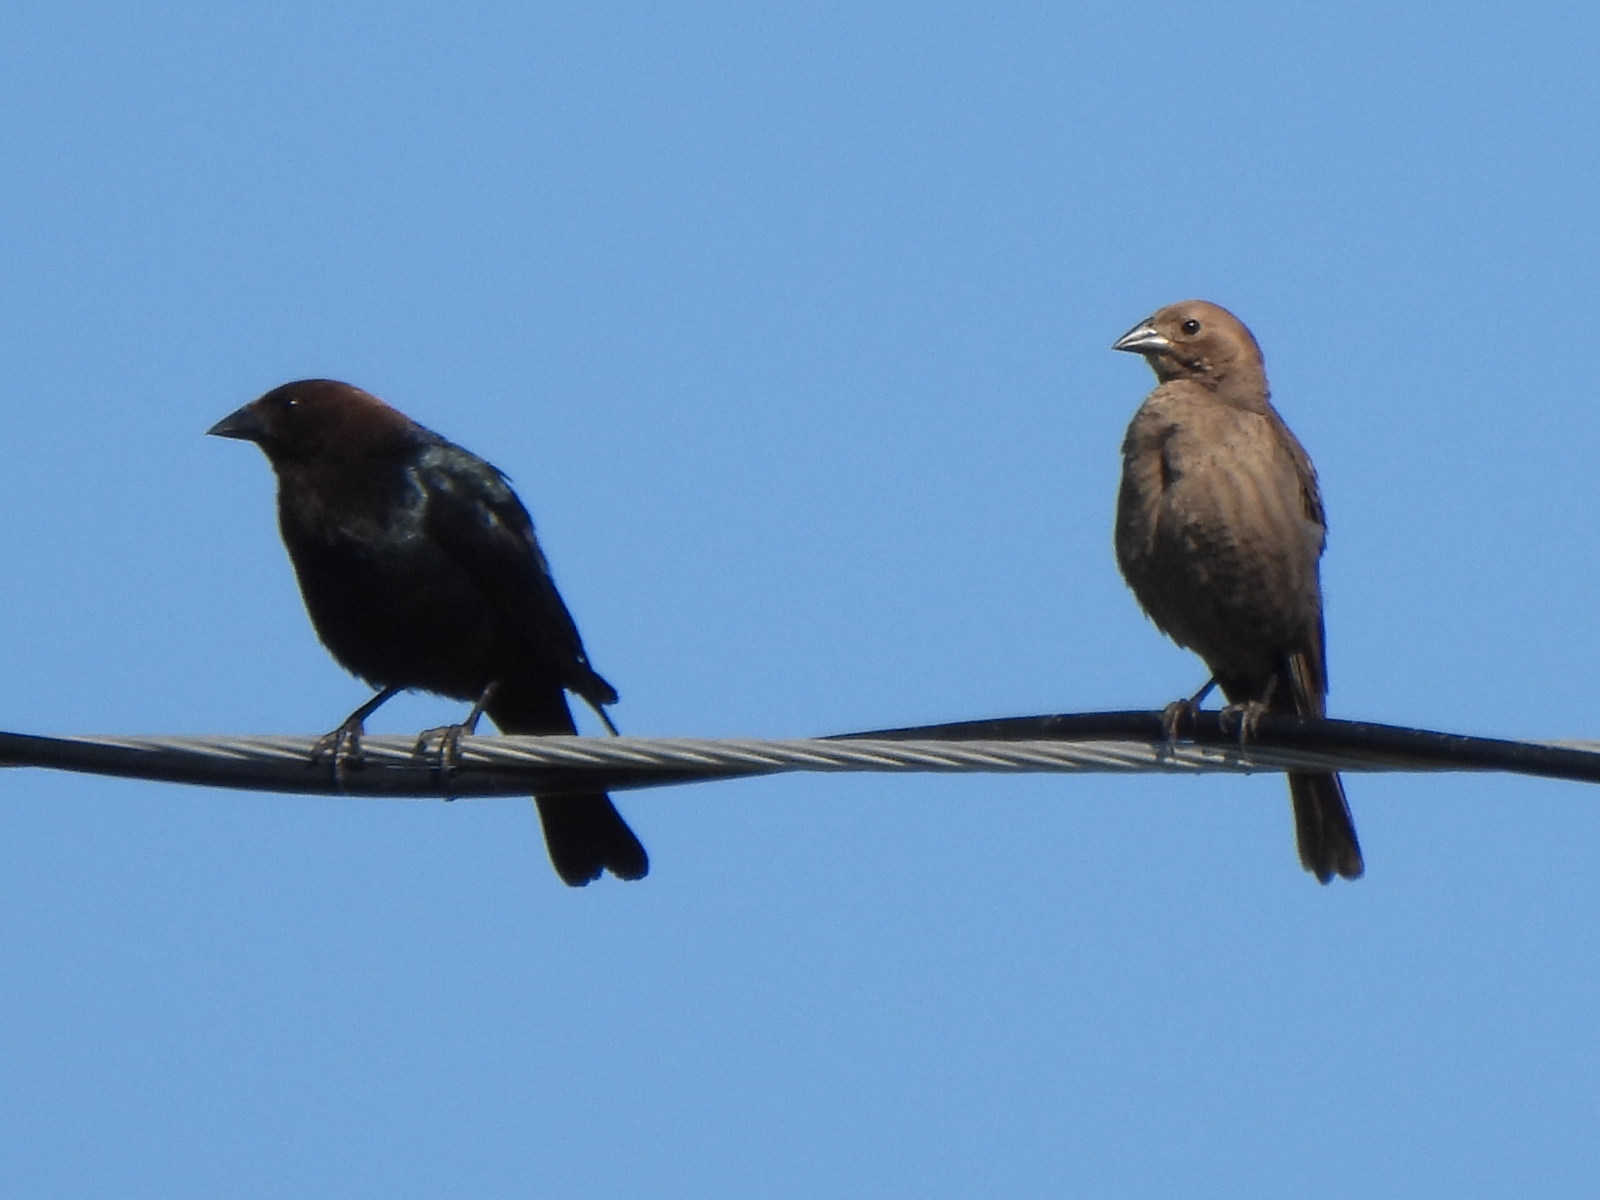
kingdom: Animalia
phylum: Chordata
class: Aves
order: Passeriformes
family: Icteridae
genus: Molothrus
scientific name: Molothrus ater
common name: Brown-headed cowbird
